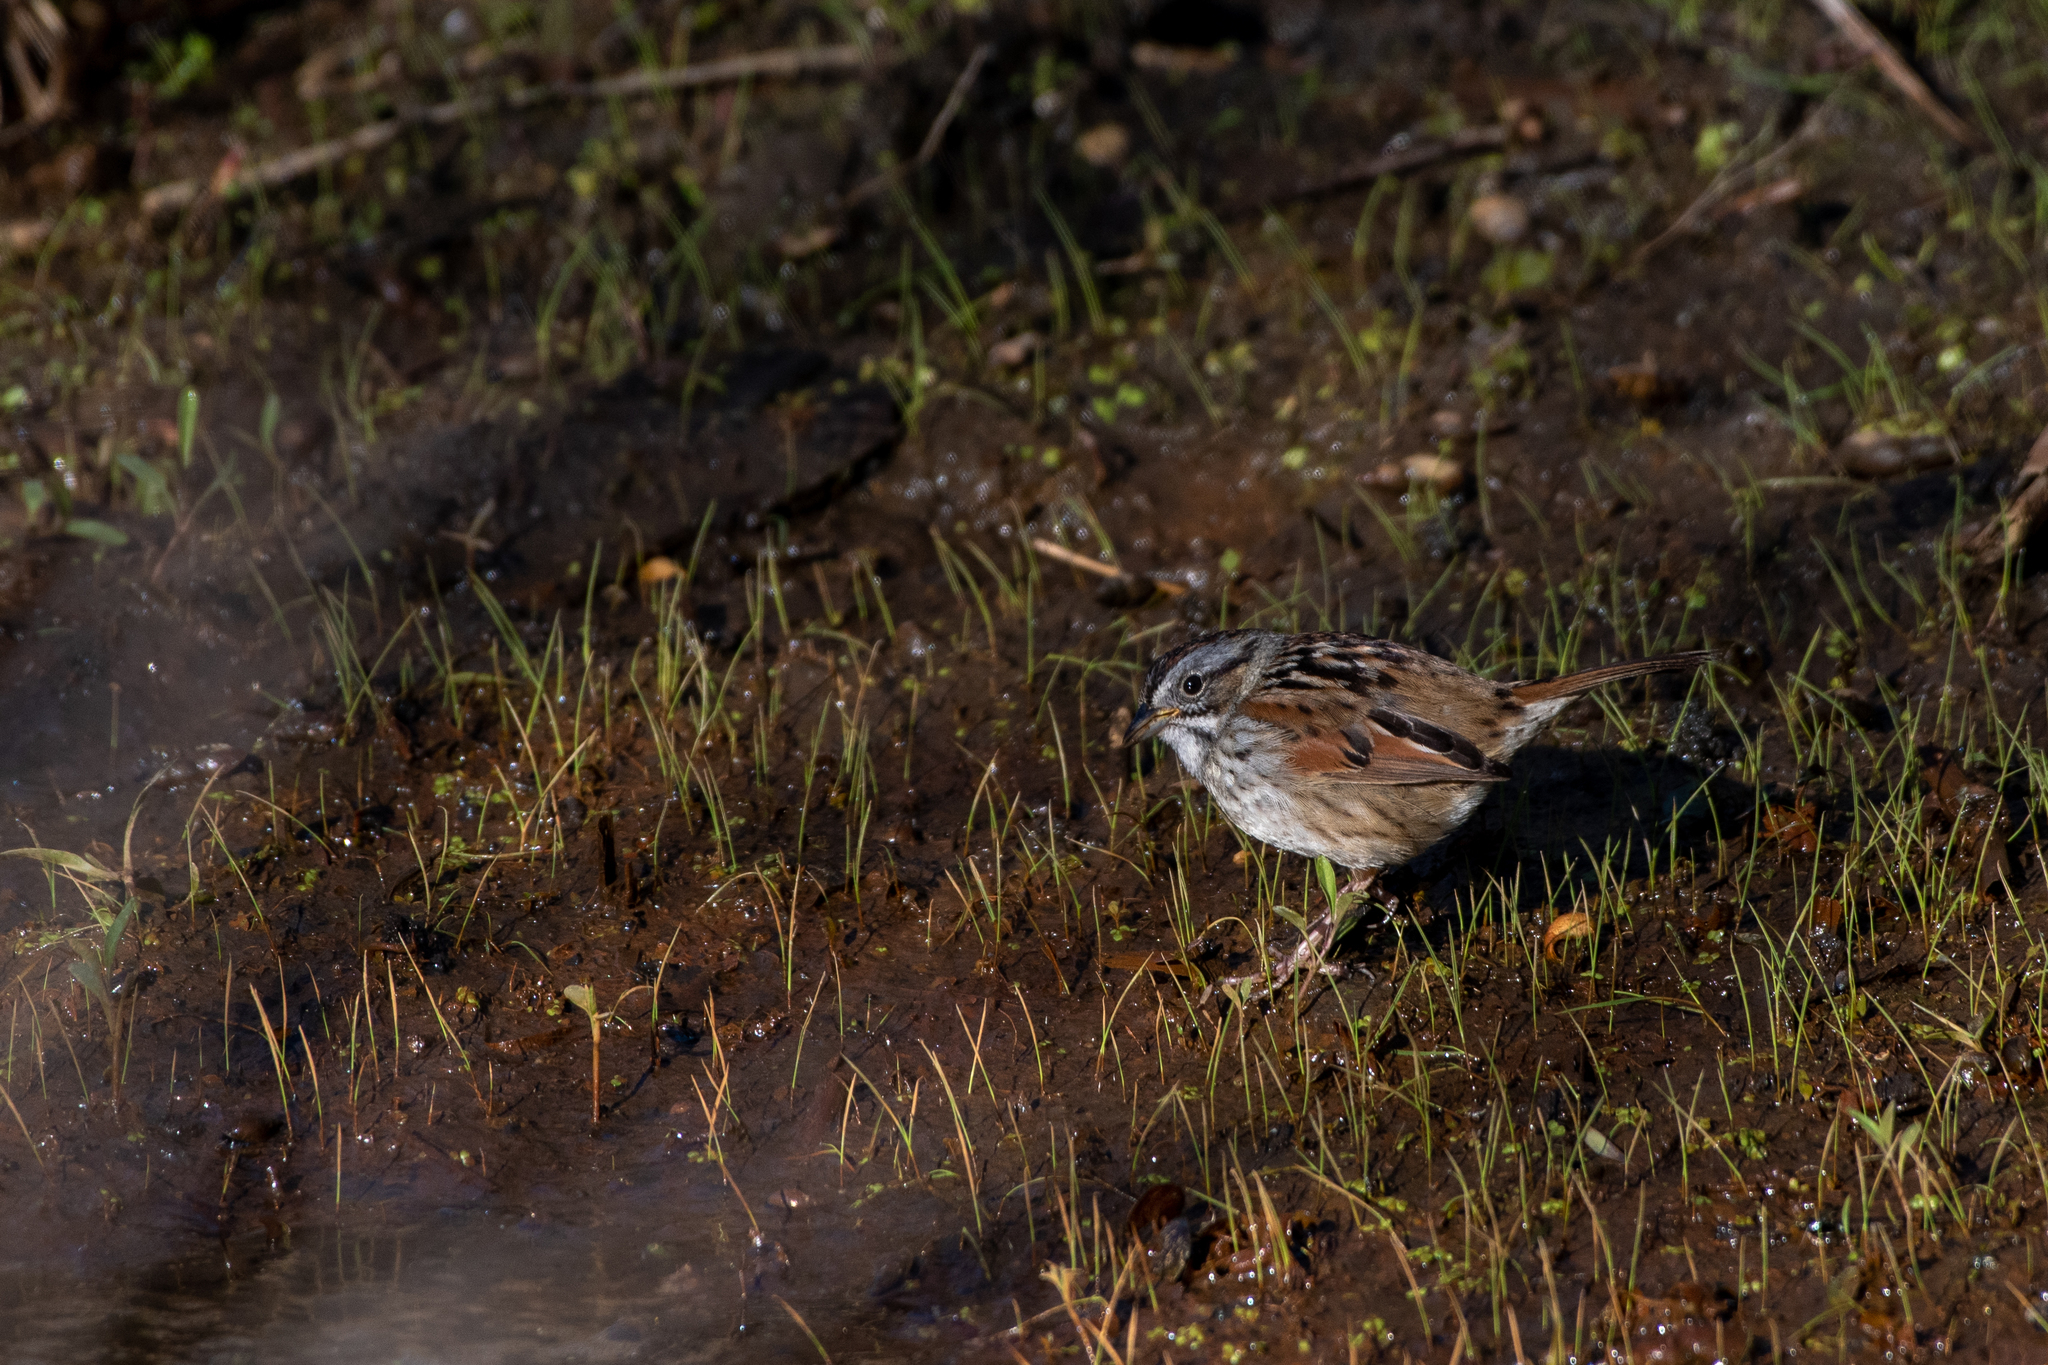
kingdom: Animalia
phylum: Chordata
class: Aves
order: Passeriformes
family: Passerellidae
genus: Melospiza
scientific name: Melospiza georgiana
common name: Swamp sparrow
